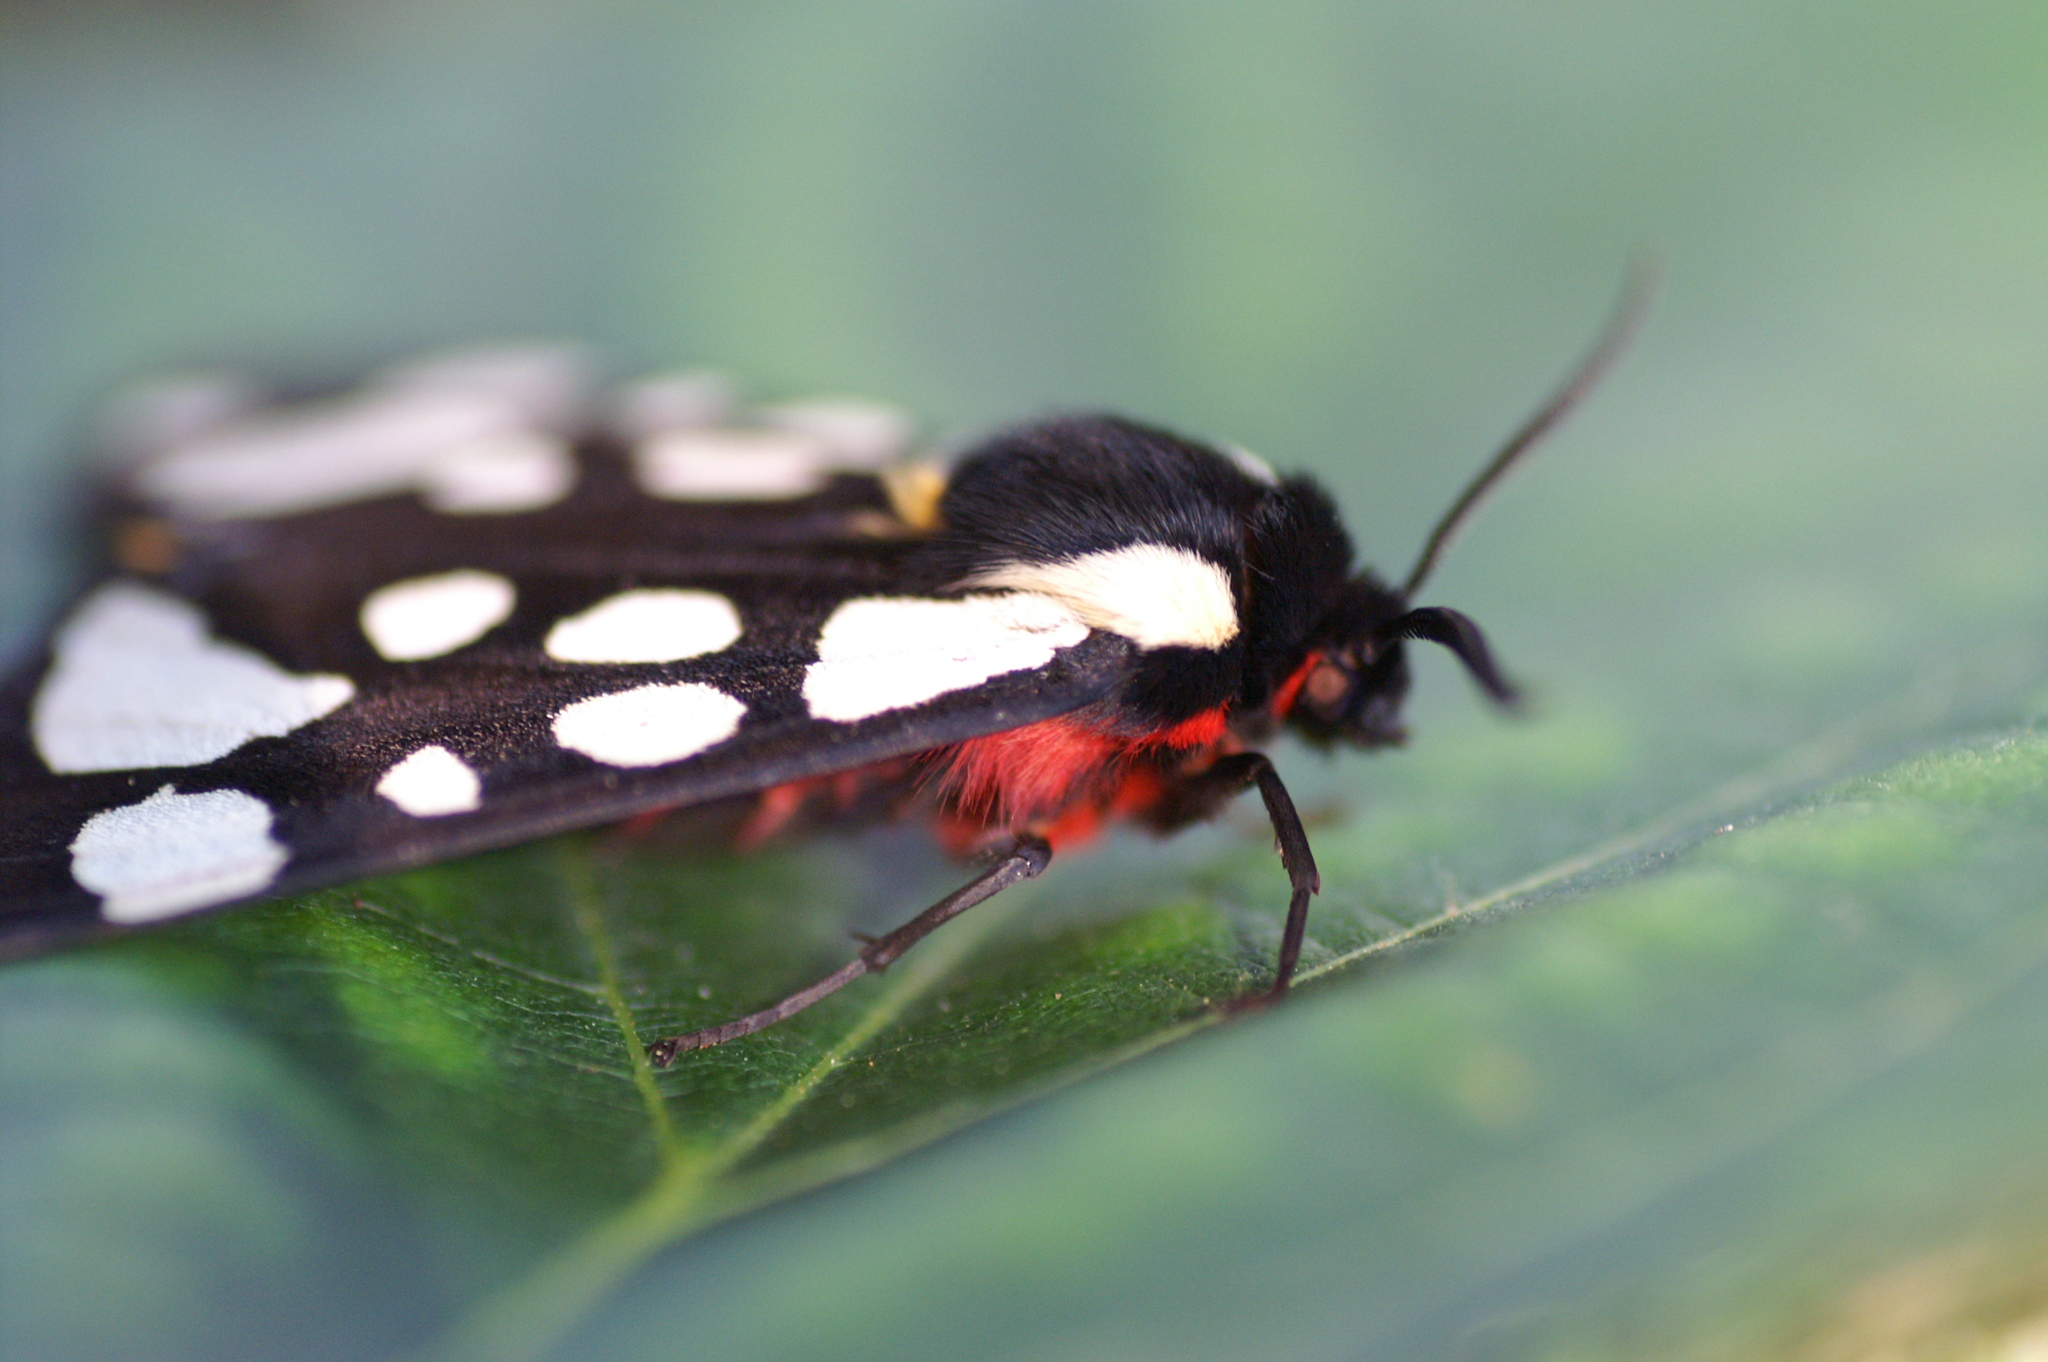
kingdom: Animalia
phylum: Arthropoda
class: Insecta
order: Lepidoptera
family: Erebidae
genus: Epicallia
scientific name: Epicallia villica
